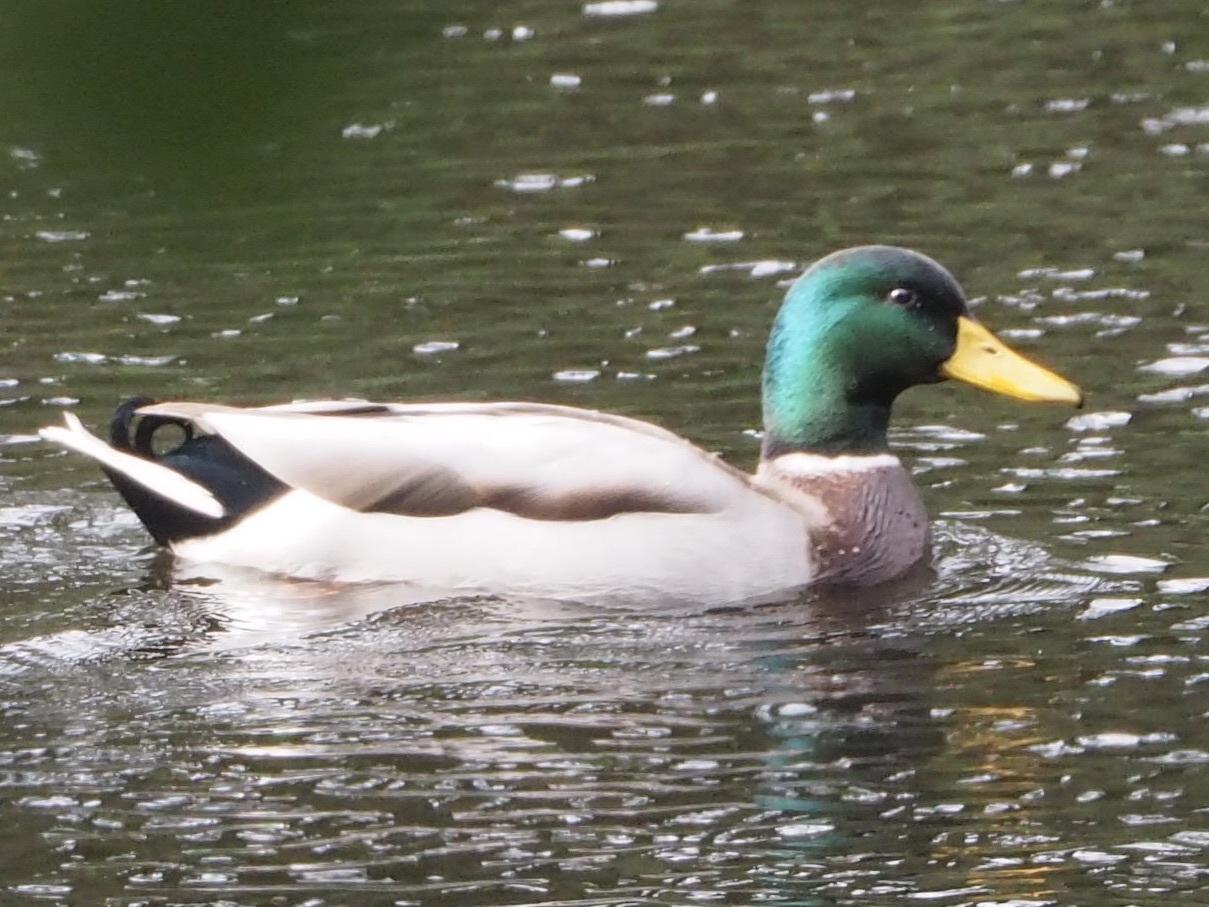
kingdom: Animalia
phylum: Chordata
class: Aves
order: Anseriformes
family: Anatidae
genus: Anas
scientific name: Anas platyrhynchos
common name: Mallard
